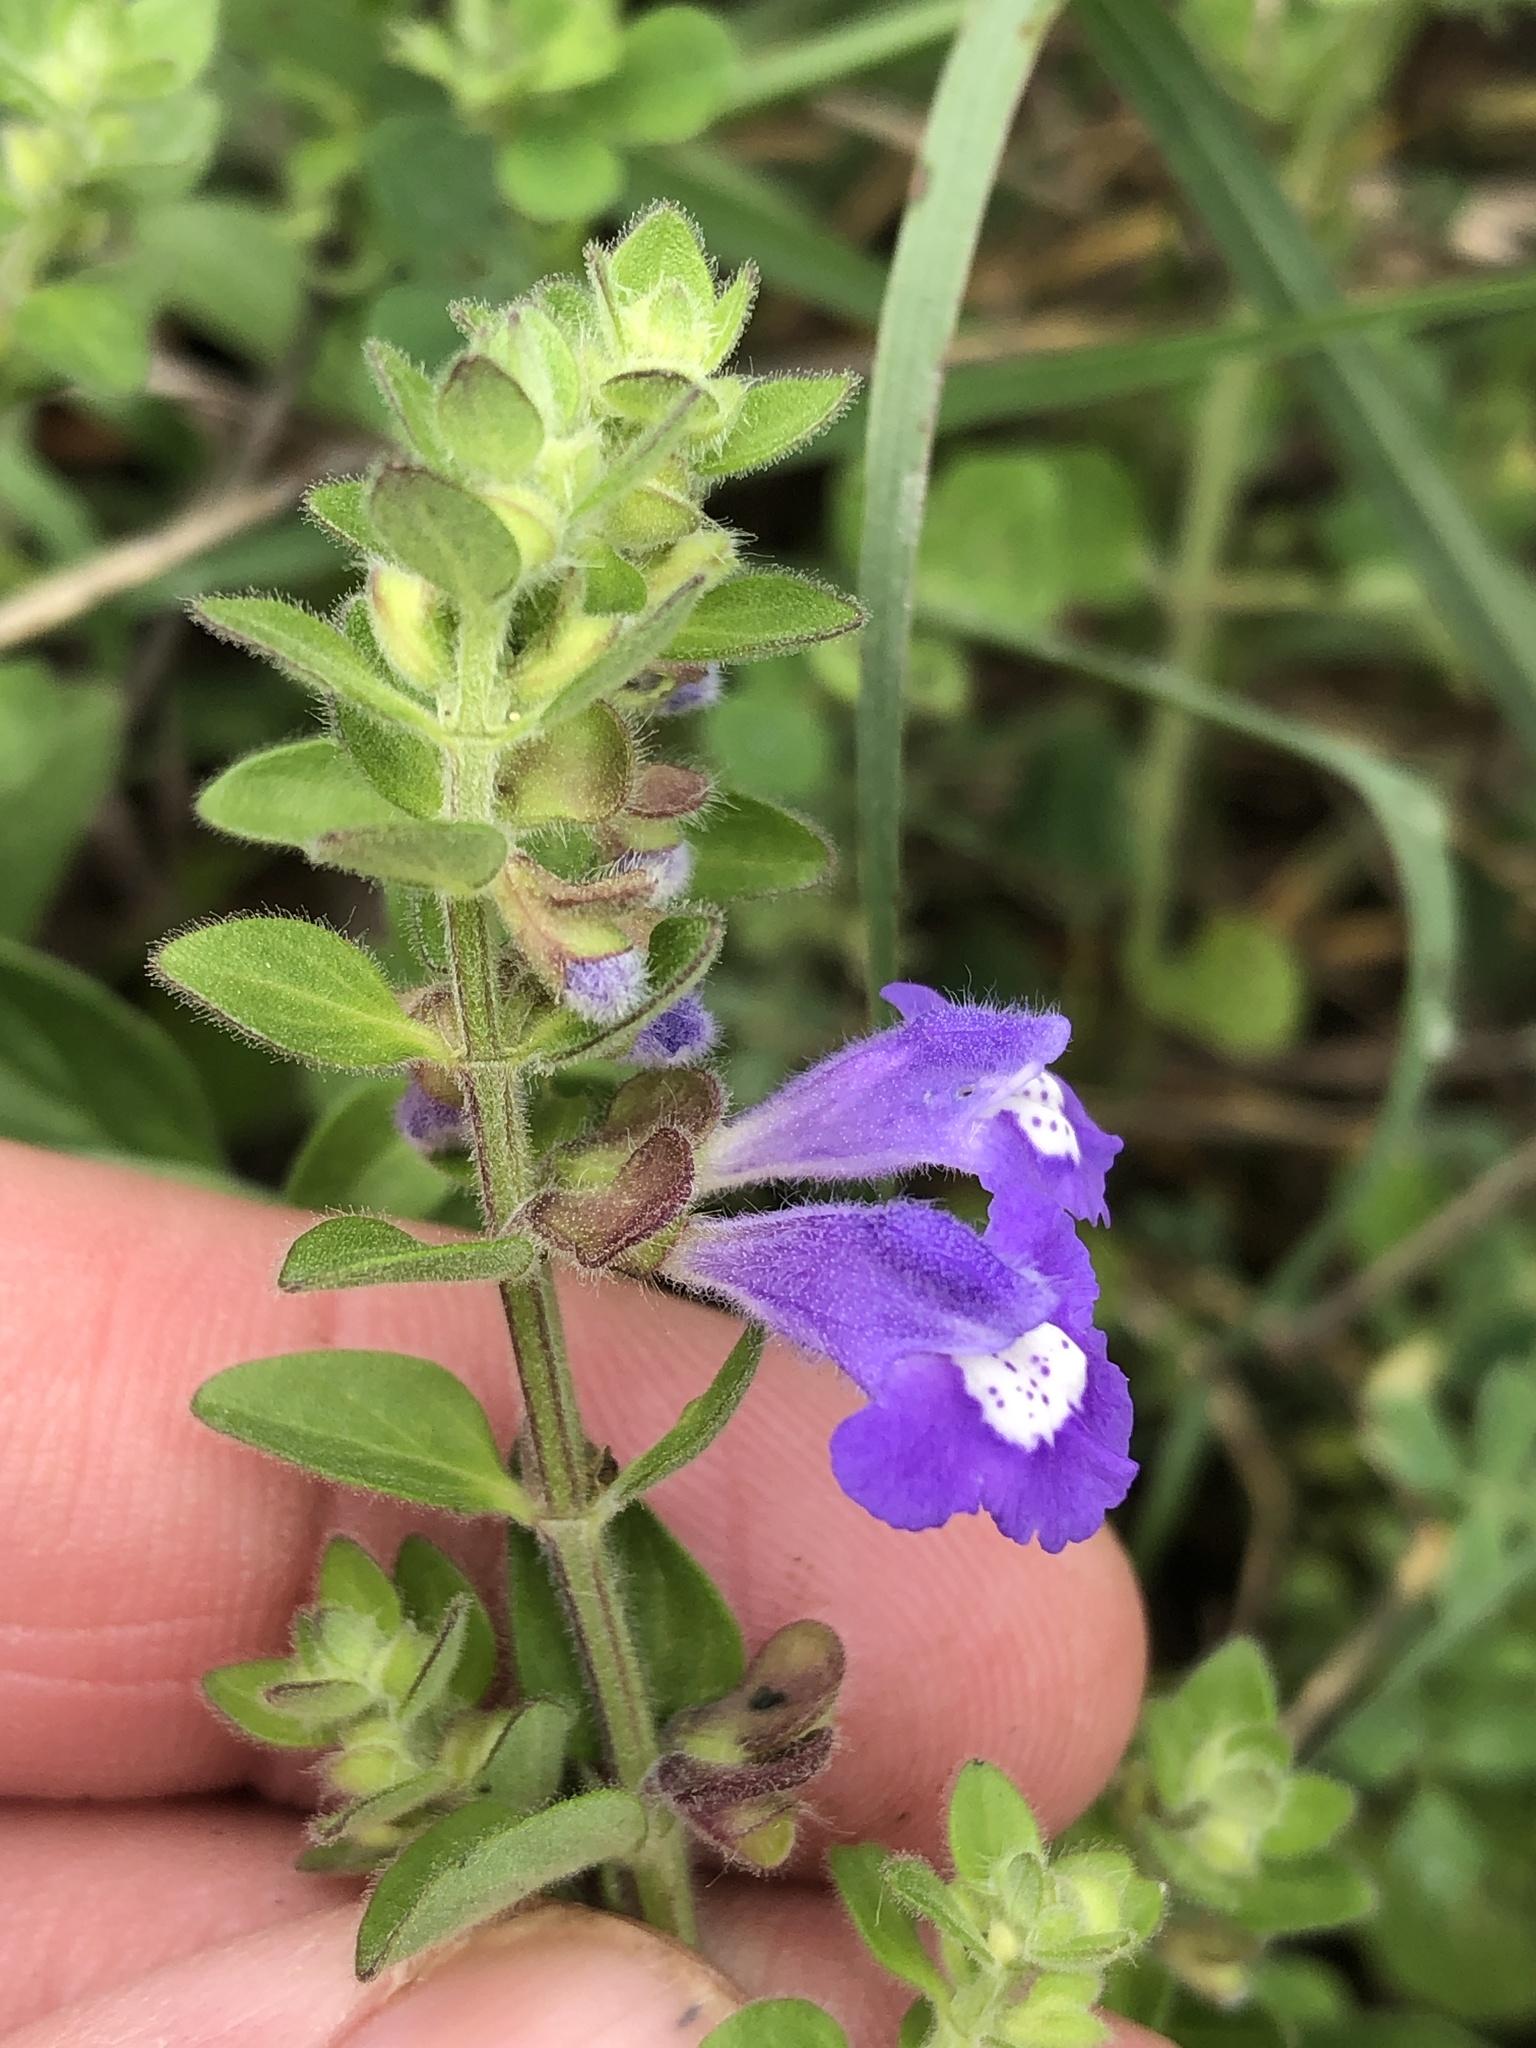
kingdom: Plantae
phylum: Tracheophyta
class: Magnoliopsida
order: Lamiales
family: Lamiaceae
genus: Scutellaria
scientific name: Scutellaria drummondii
